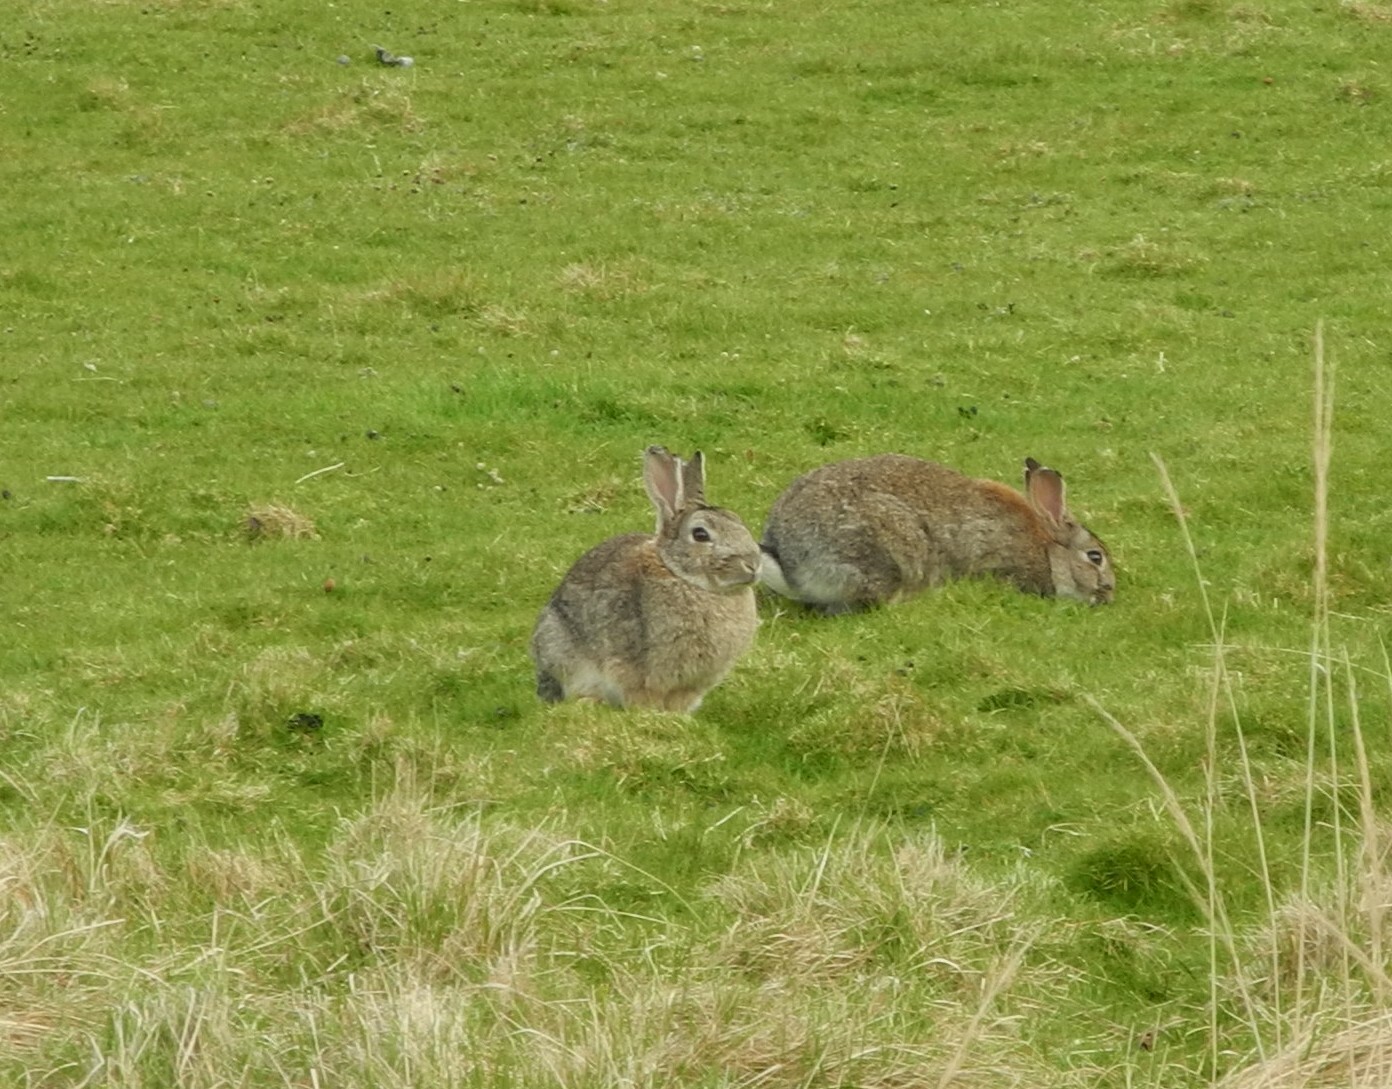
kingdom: Animalia
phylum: Chordata
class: Mammalia
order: Lagomorpha
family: Leporidae
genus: Oryctolagus
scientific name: Oryctolagus cuniculus
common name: European rabbit
